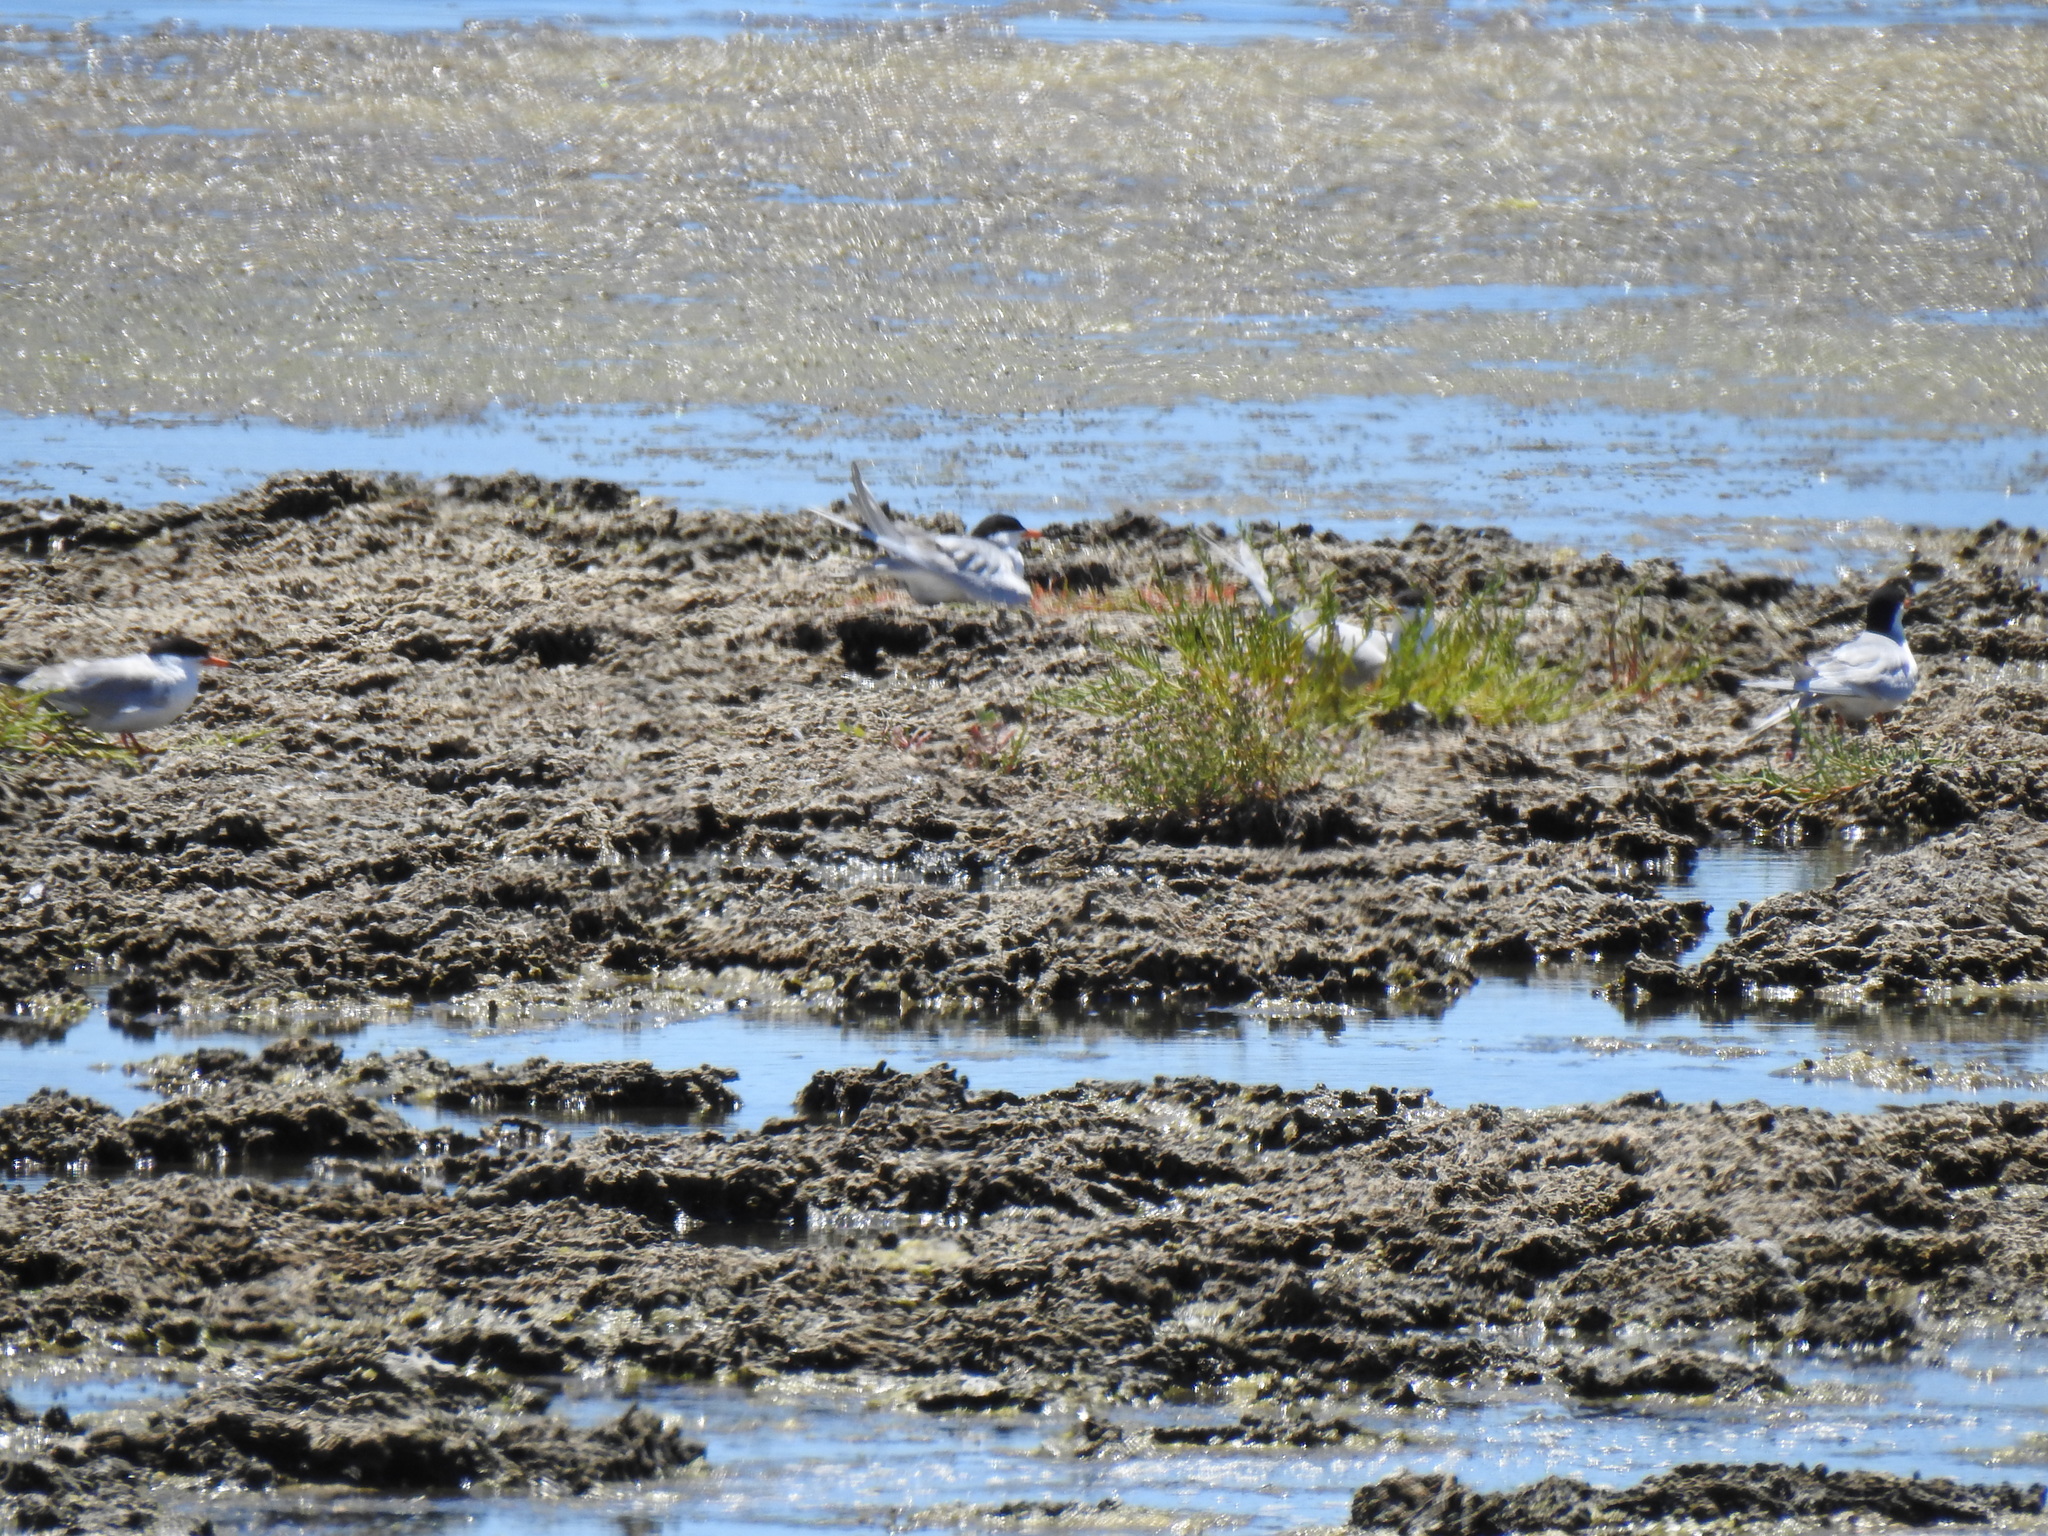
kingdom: Animalia
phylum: Chordata
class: Aves
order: Charadriiformes
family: Laridae
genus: Sterna
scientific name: Sterna forsteri
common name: Forster's tern
